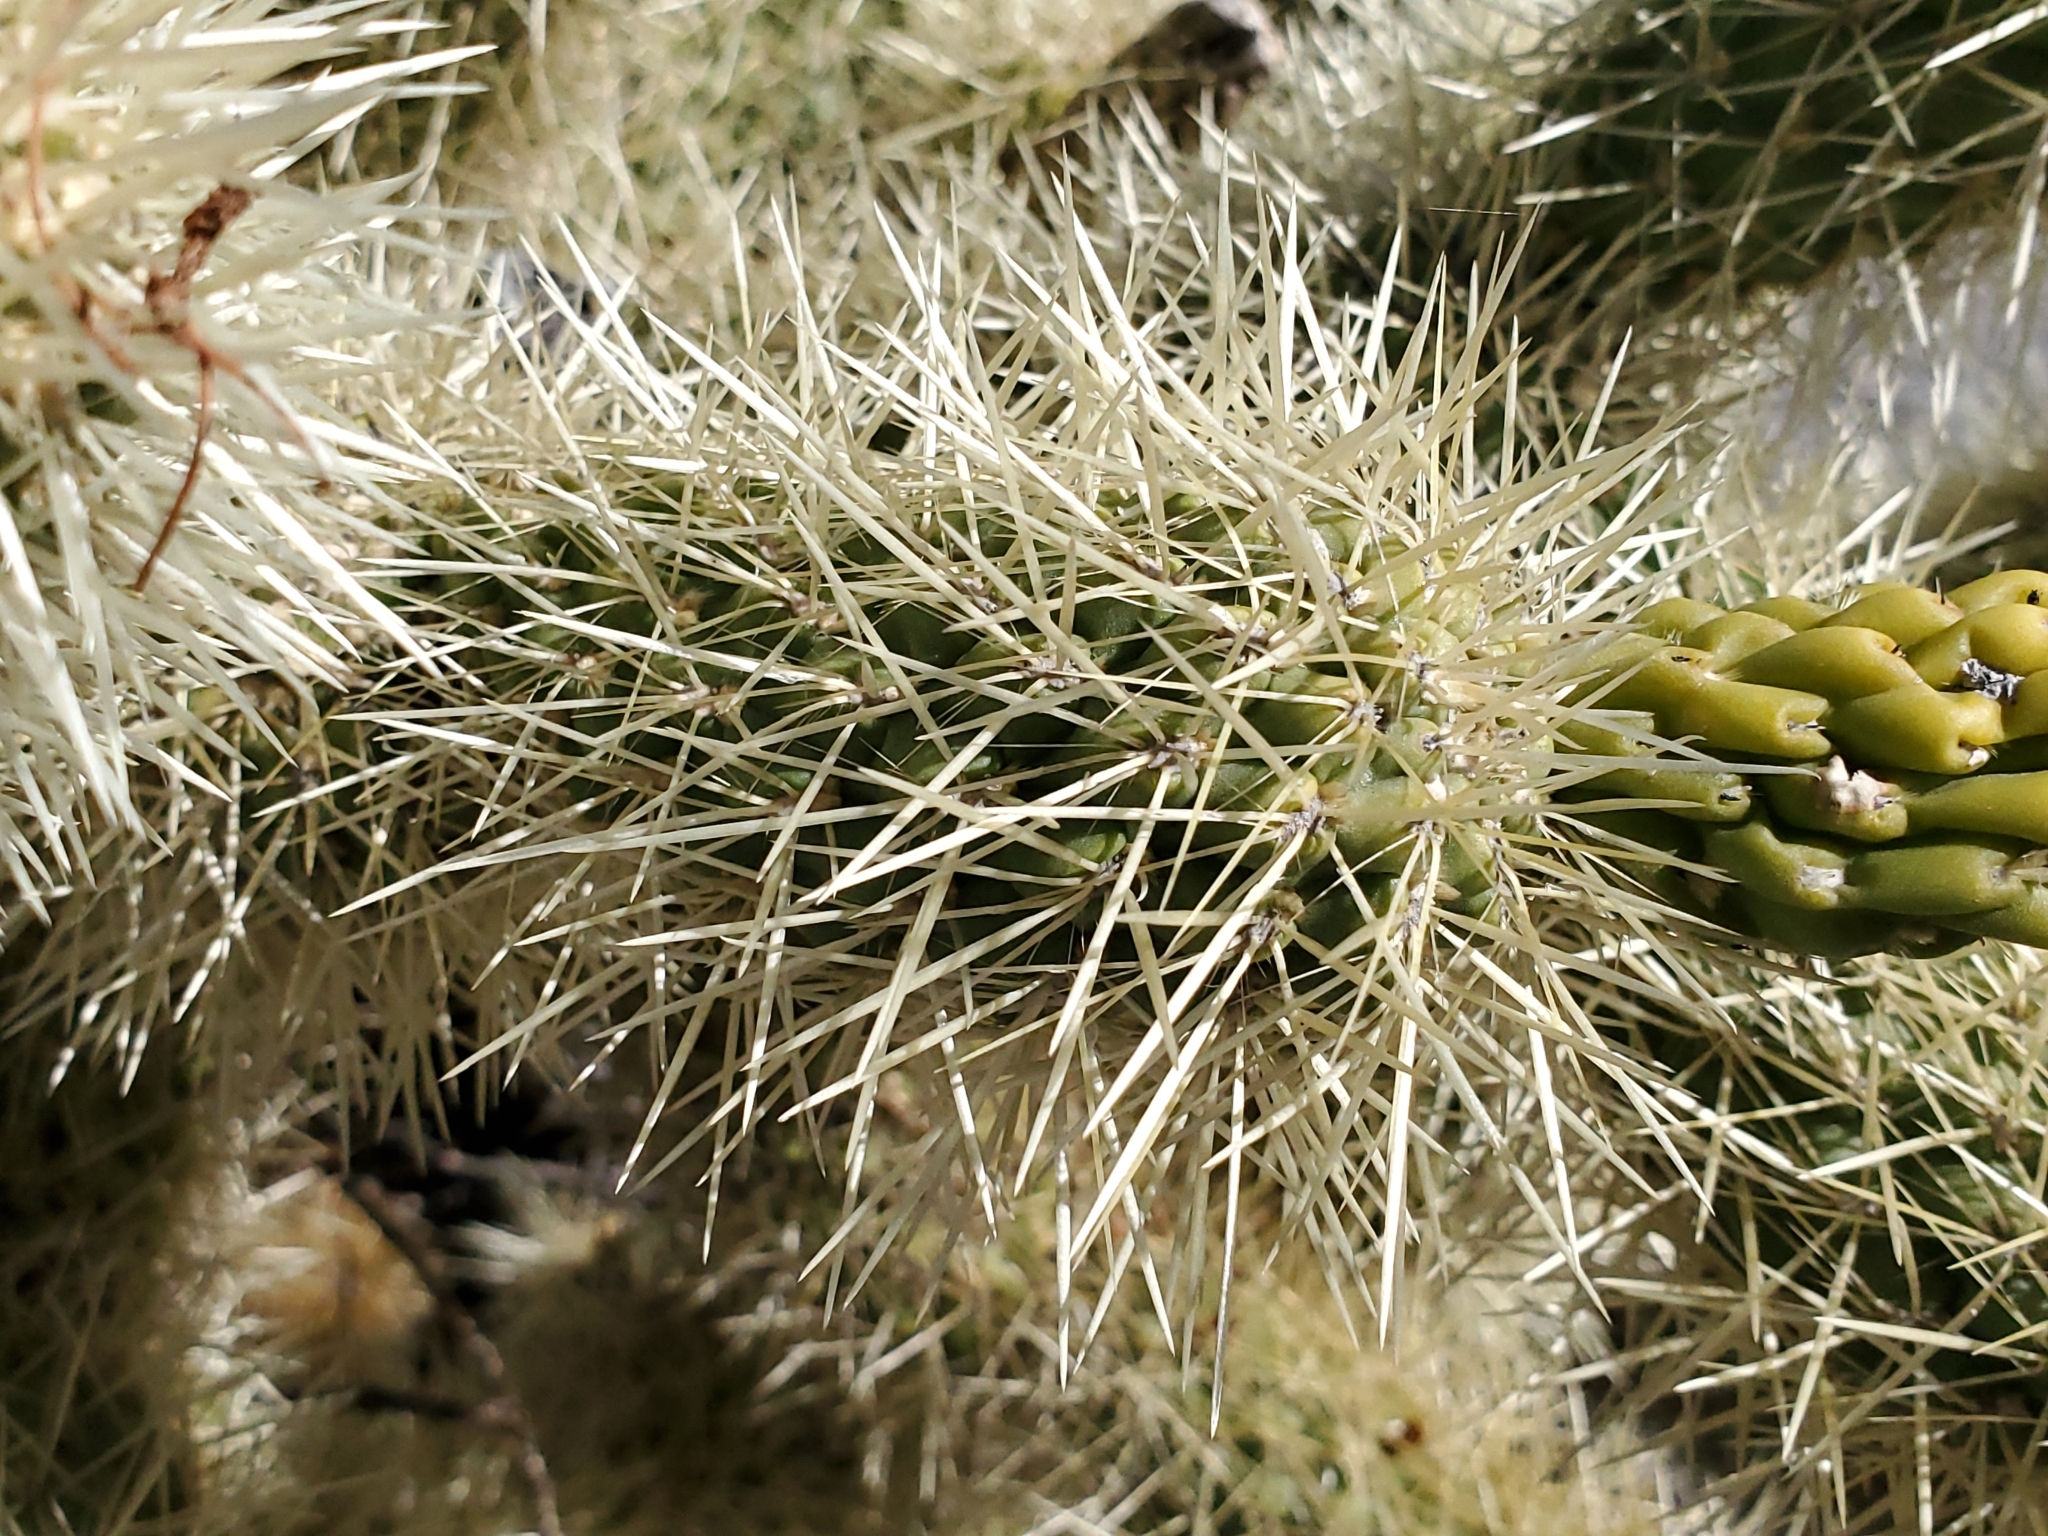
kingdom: Plantae
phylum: Tracheophyta
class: Magnoliopsida
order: Caryophyllales
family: Cactaceae
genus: Cylindropuntia
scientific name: Cylindropuntia fosbergii
